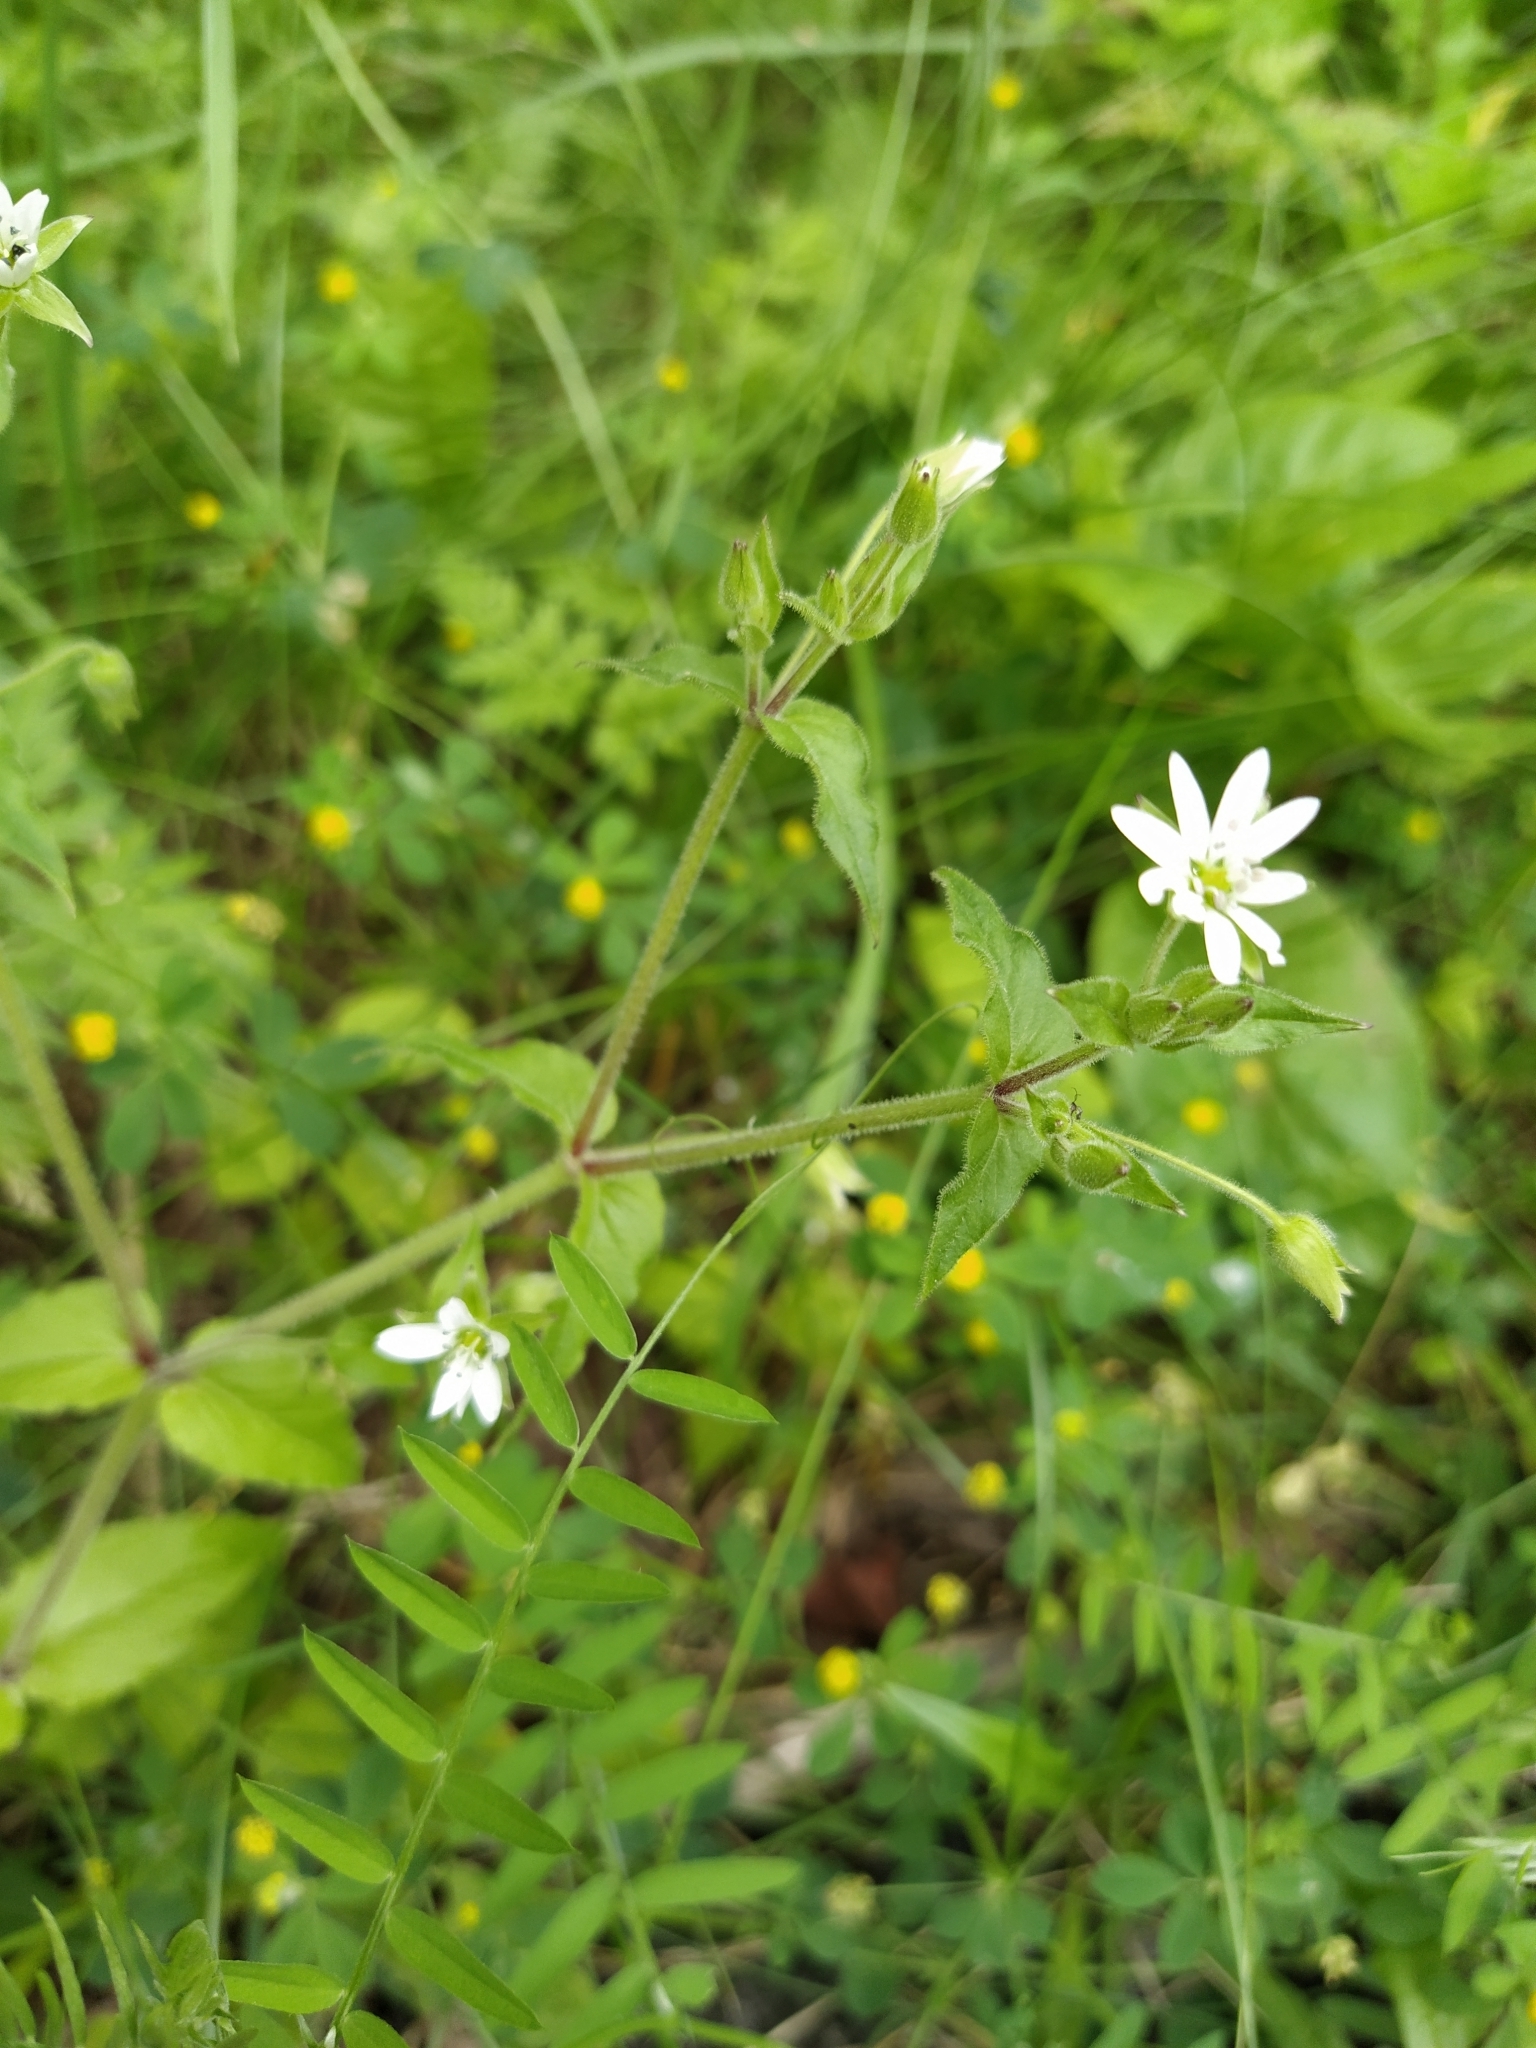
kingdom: Plantae
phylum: Tracheophyta
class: Magnoliopsida
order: Caryophyllales
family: Caryophyllaceae
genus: Stellaria
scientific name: Stellaria aquatica
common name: Water chickweed
